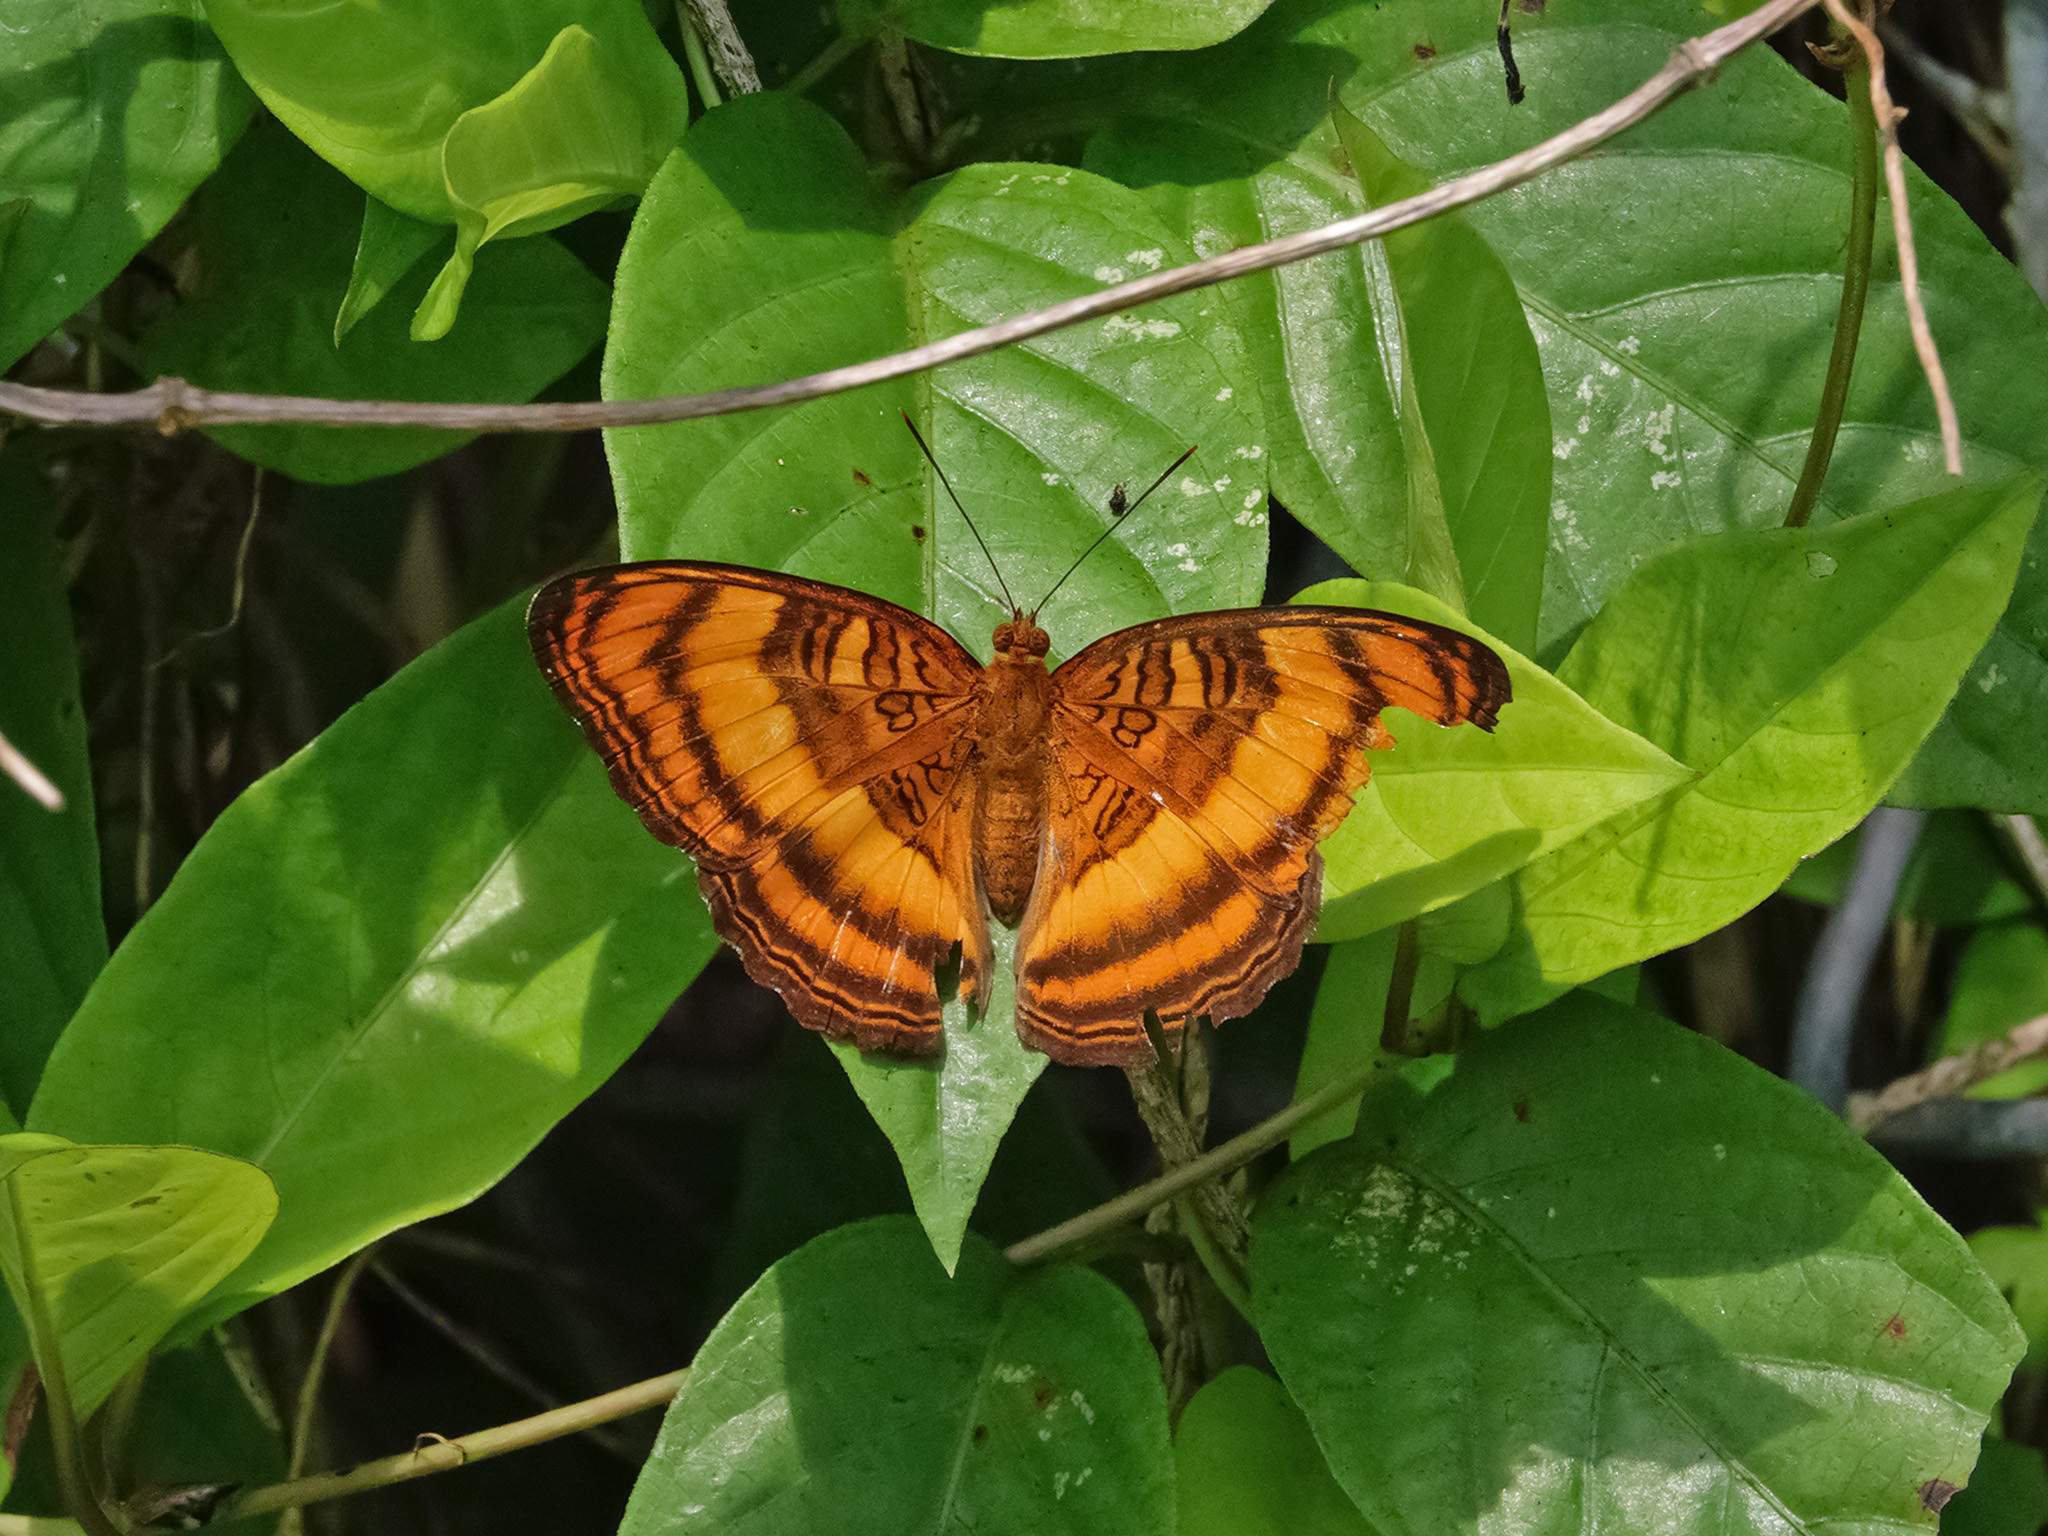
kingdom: Animalia
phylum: Arthropoda
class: Insecta
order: Lepidoptera
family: Nymphalidae
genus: Pandita
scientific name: Pandita sinope
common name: Colonel
